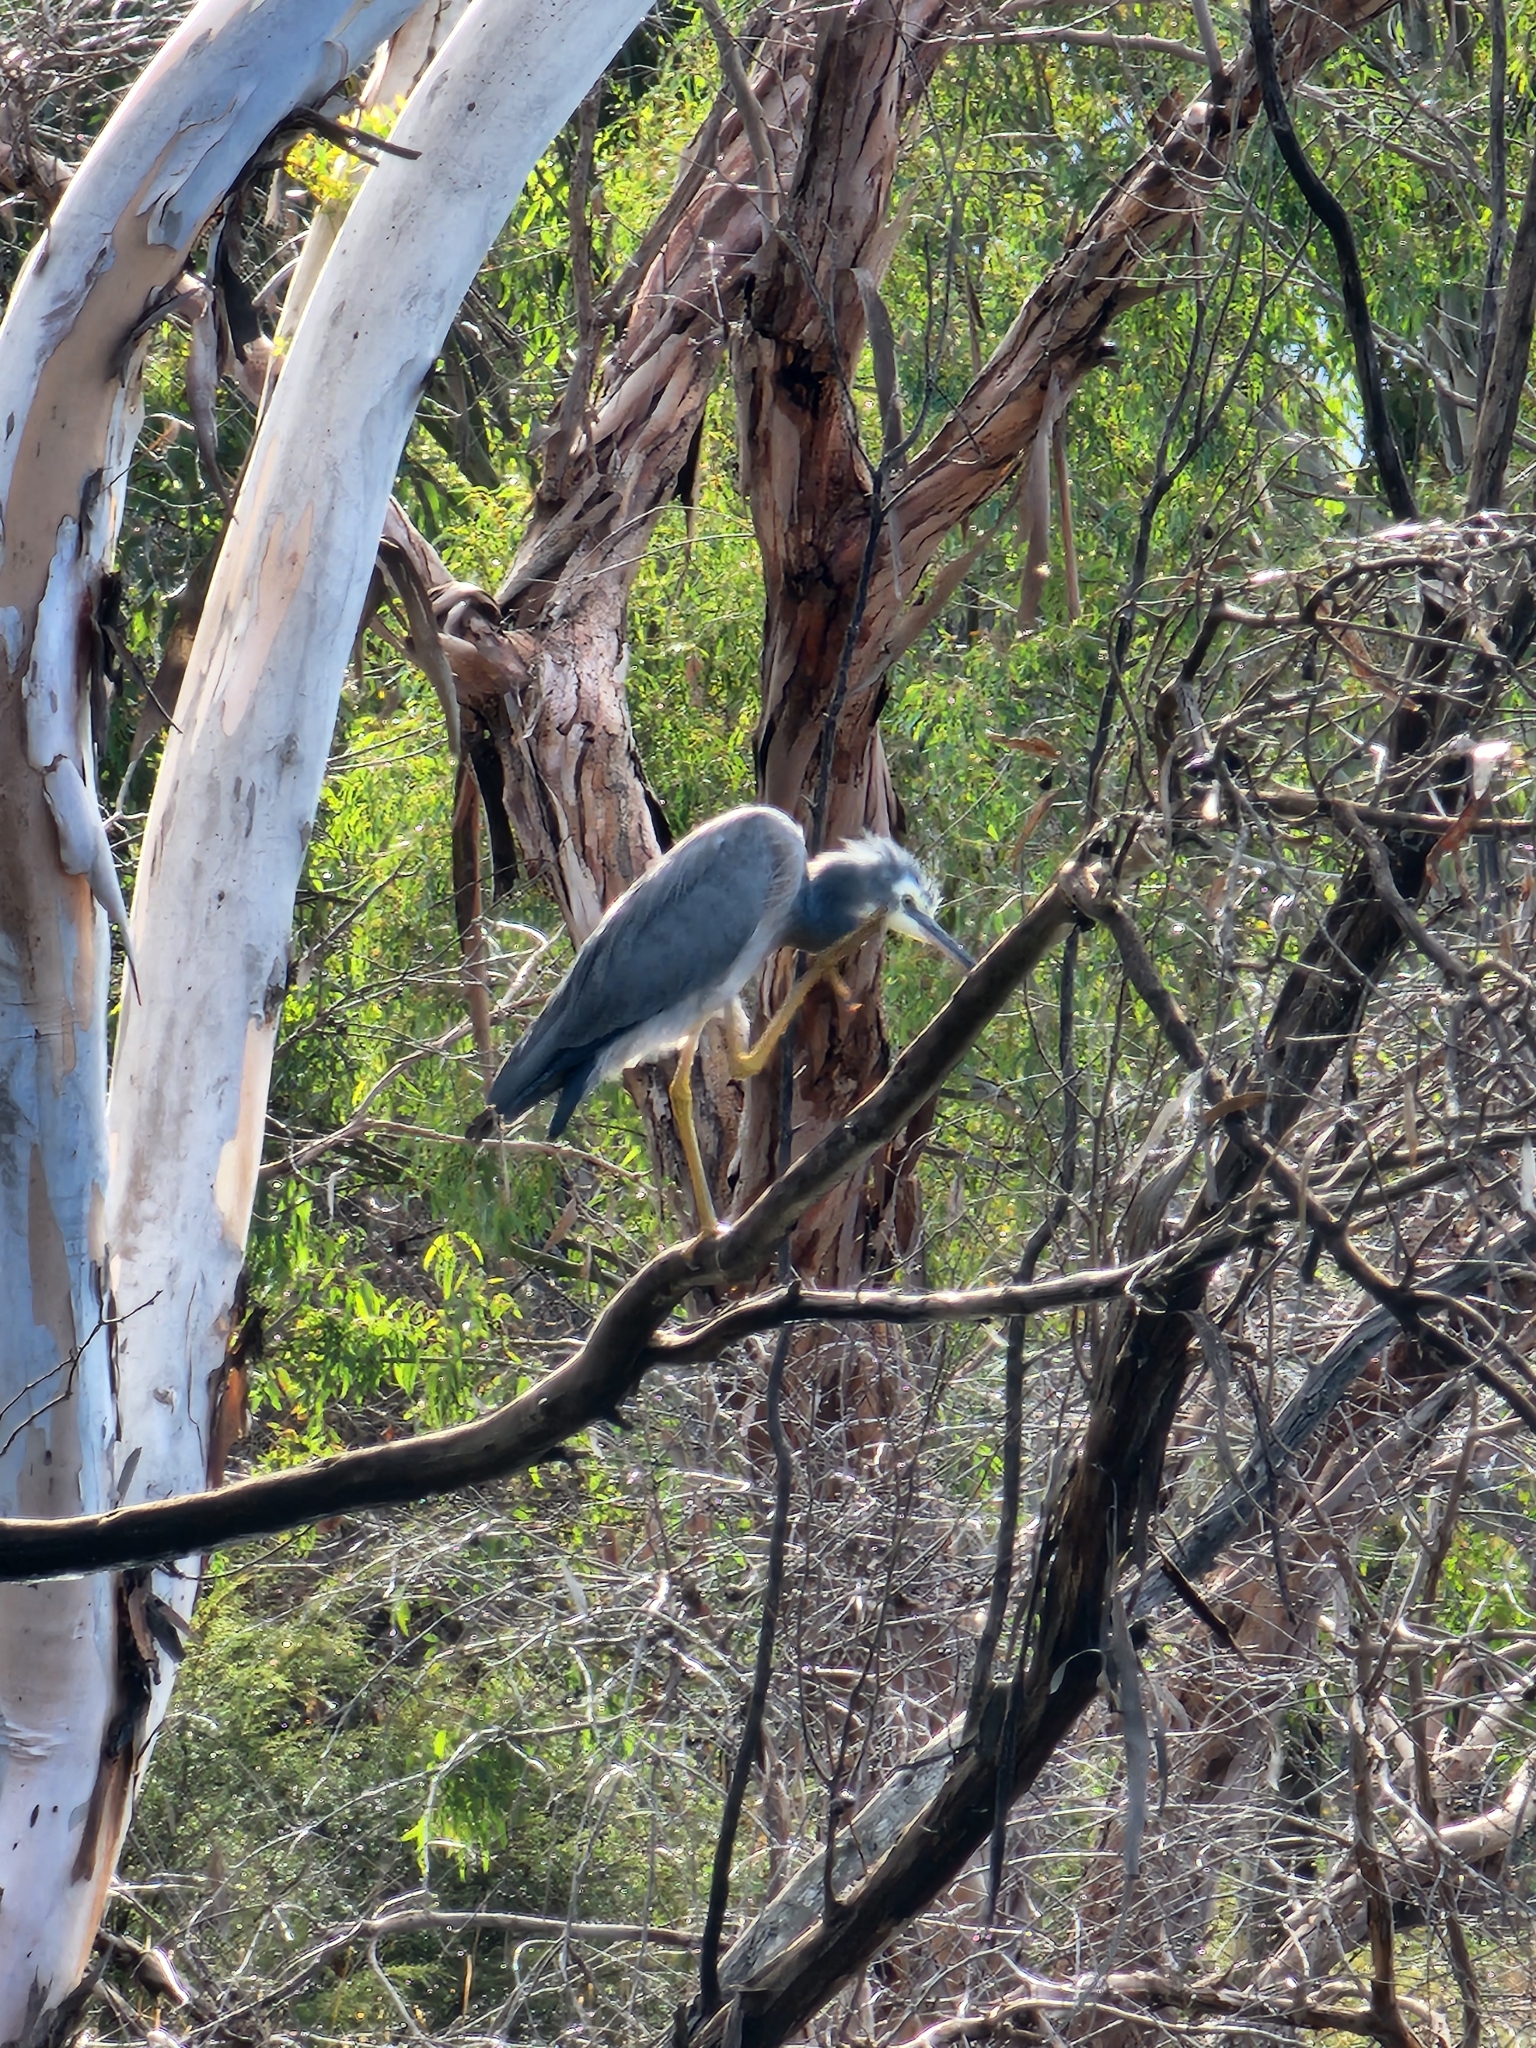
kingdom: Animalia
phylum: Chordata
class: Aves
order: Pelecaniformes
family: Ardeidae
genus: Egretta
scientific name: Egretta novaehollandiae
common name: White-faced heron
